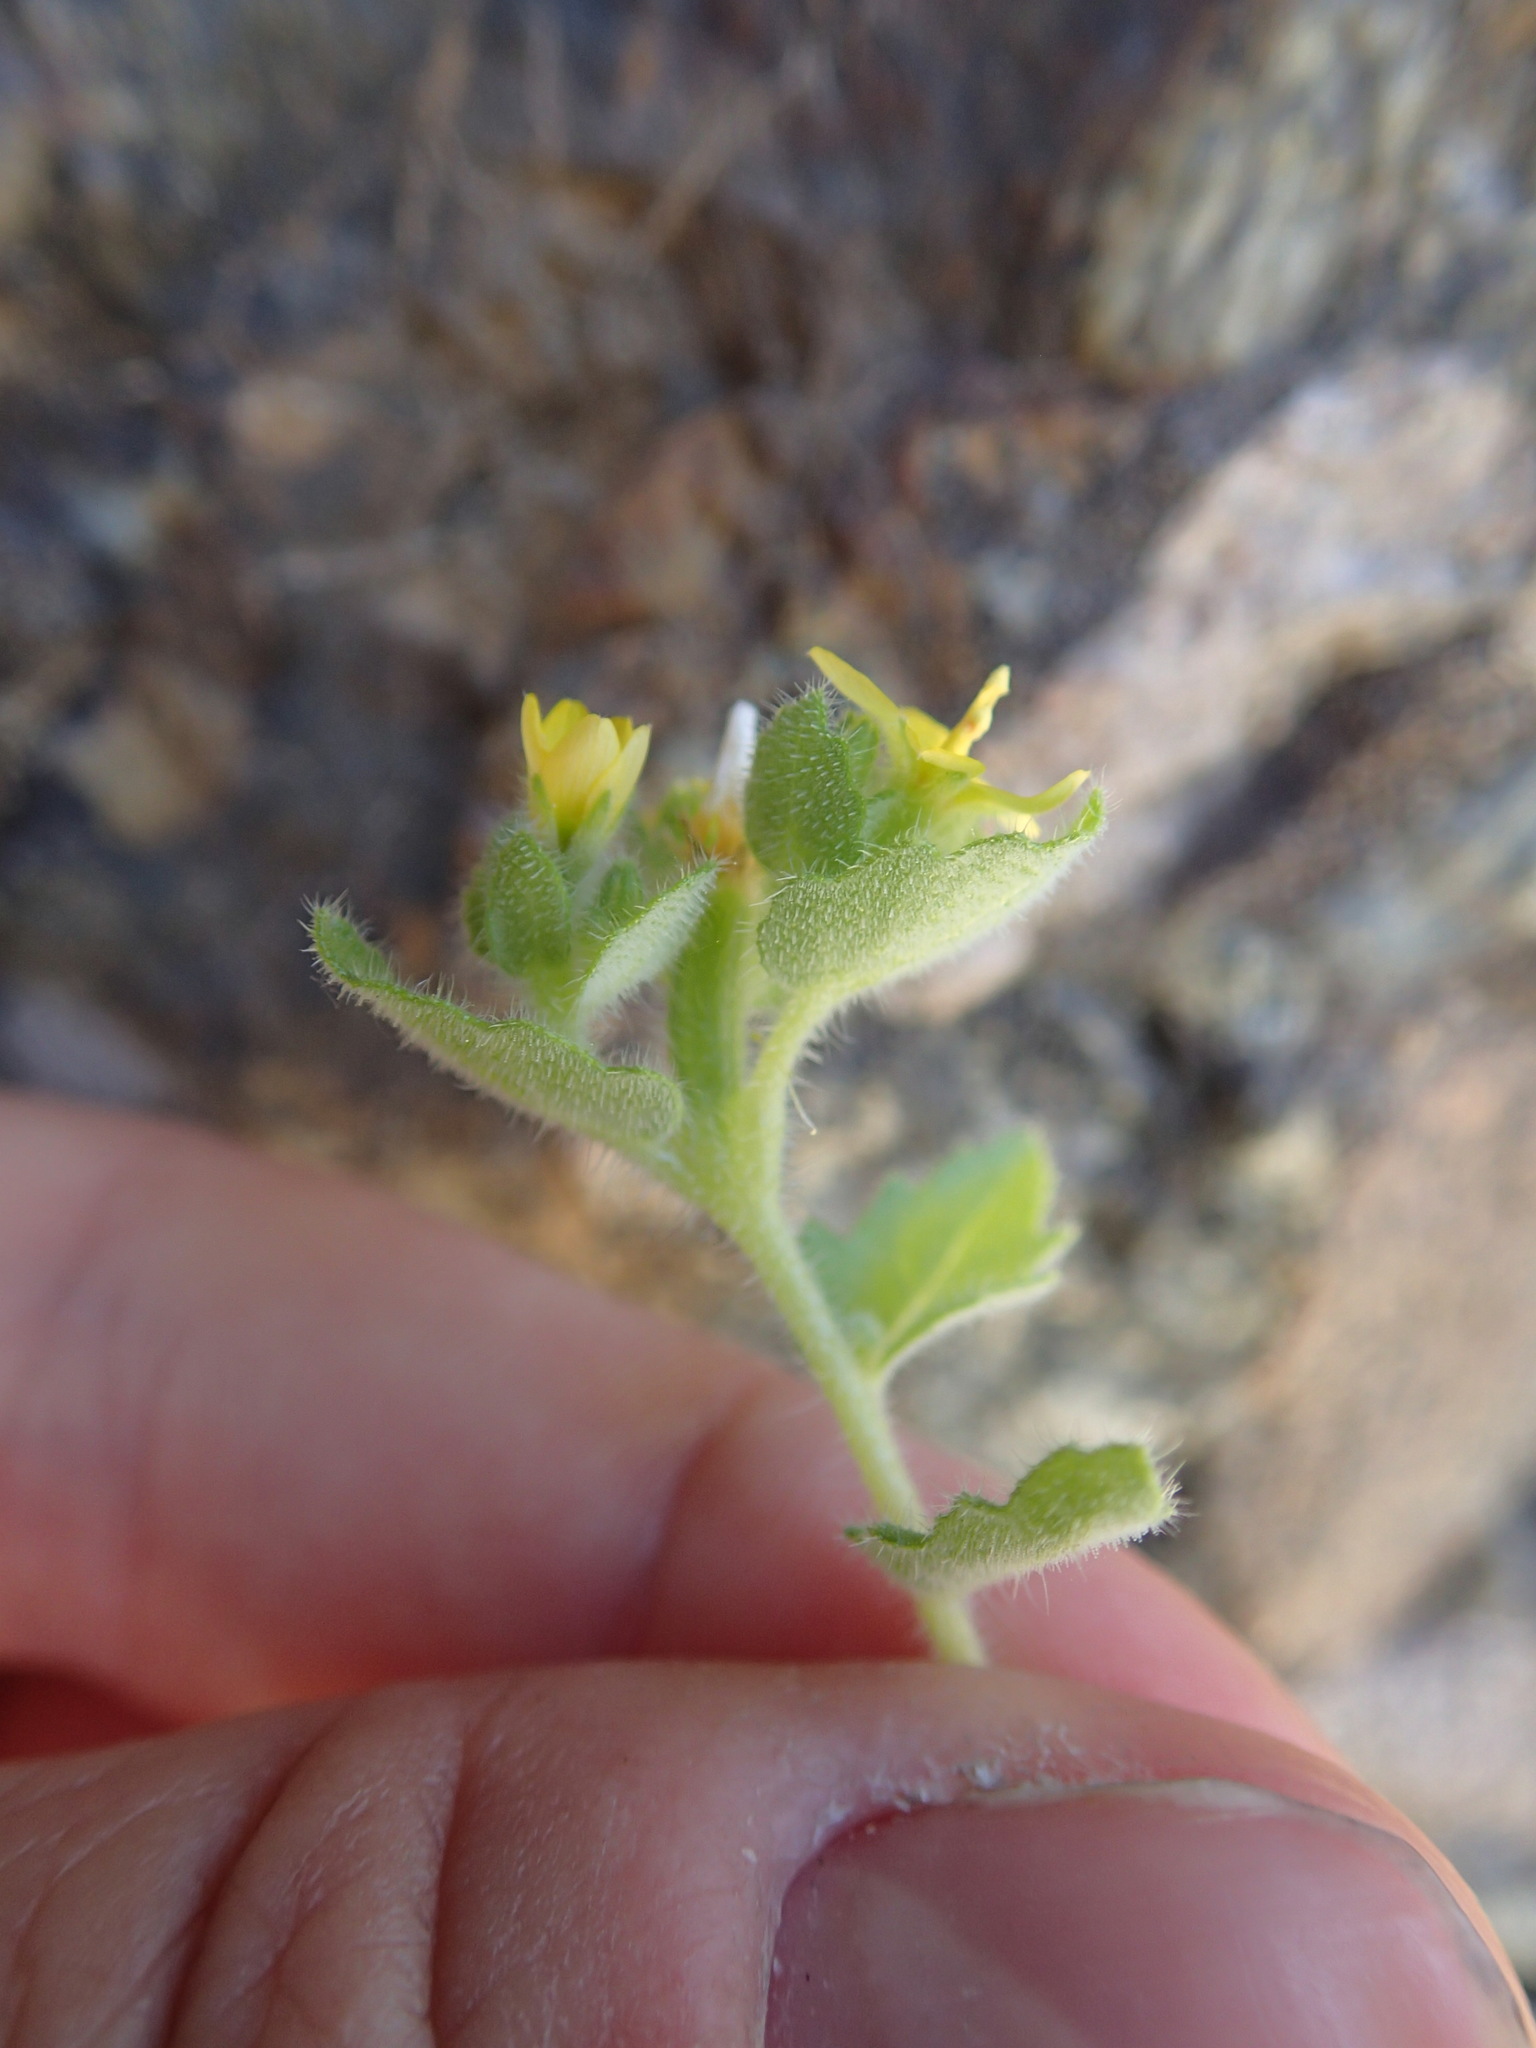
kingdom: Plantae
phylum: Tracheophyta
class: Magnoliopsida
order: Cornales
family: Loasaceae
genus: Mentzelia
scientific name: Mentzelia micrantha
